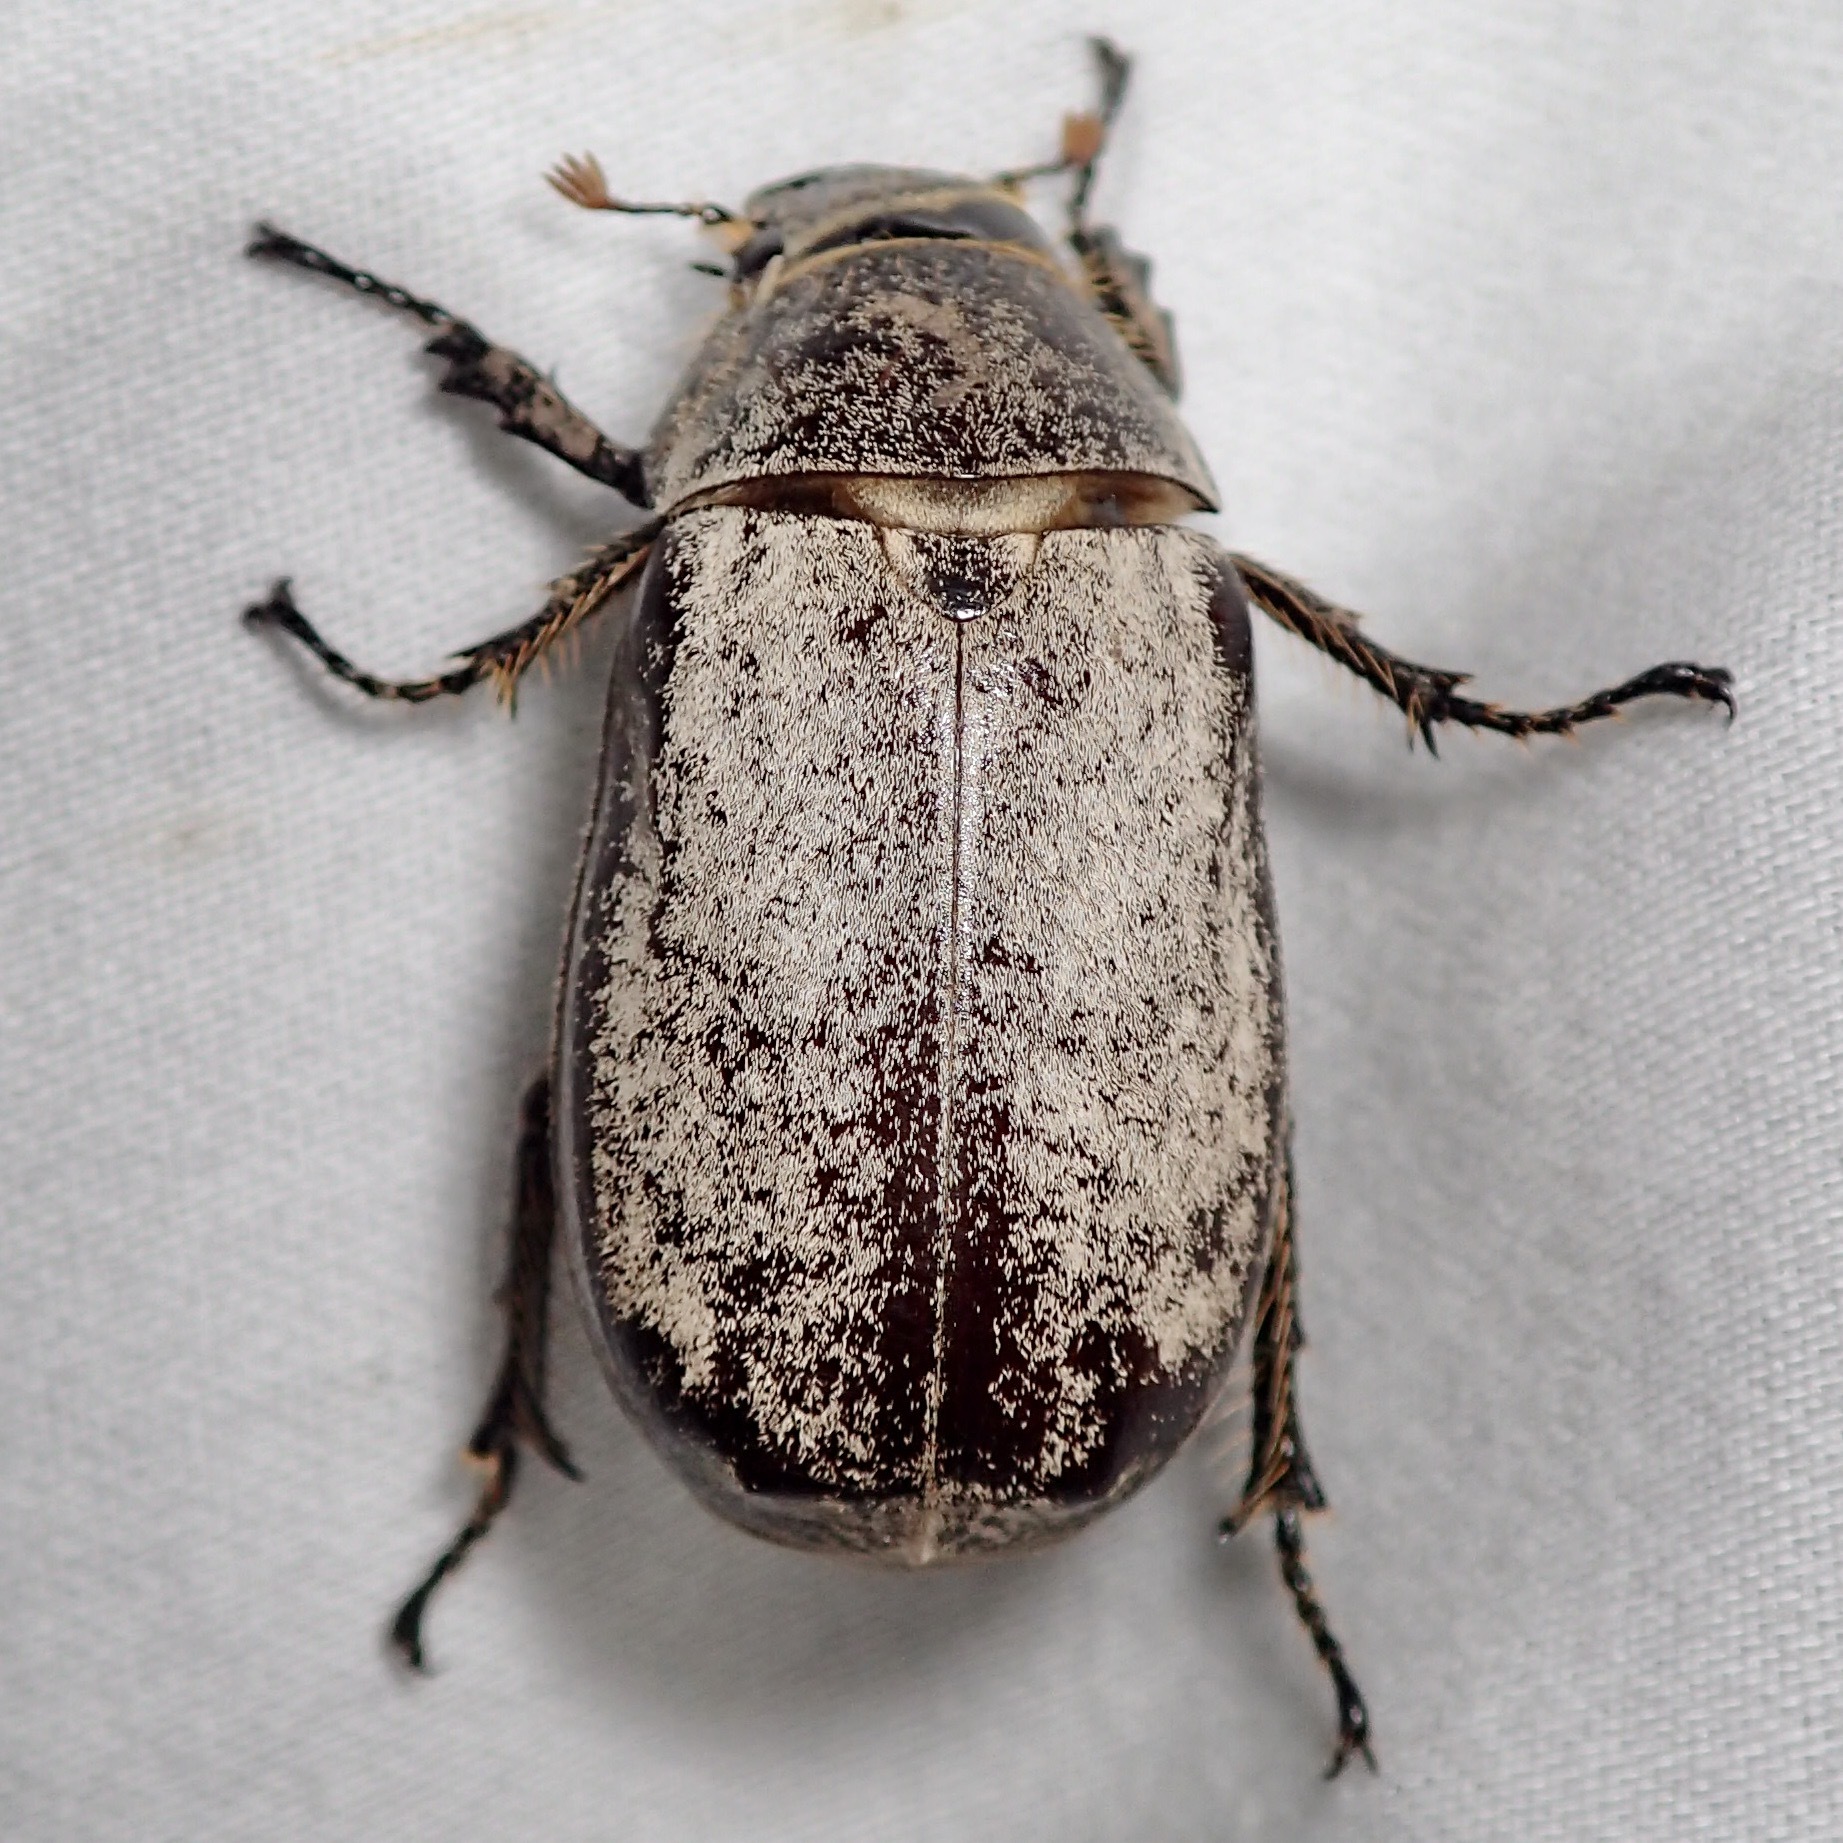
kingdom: Animalia
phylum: Arthropoda
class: Insecta
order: Coleoptera
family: Scarabaeidae
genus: Dermolepida
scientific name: Dermolepida albohirtum
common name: Greyback cane beetle
